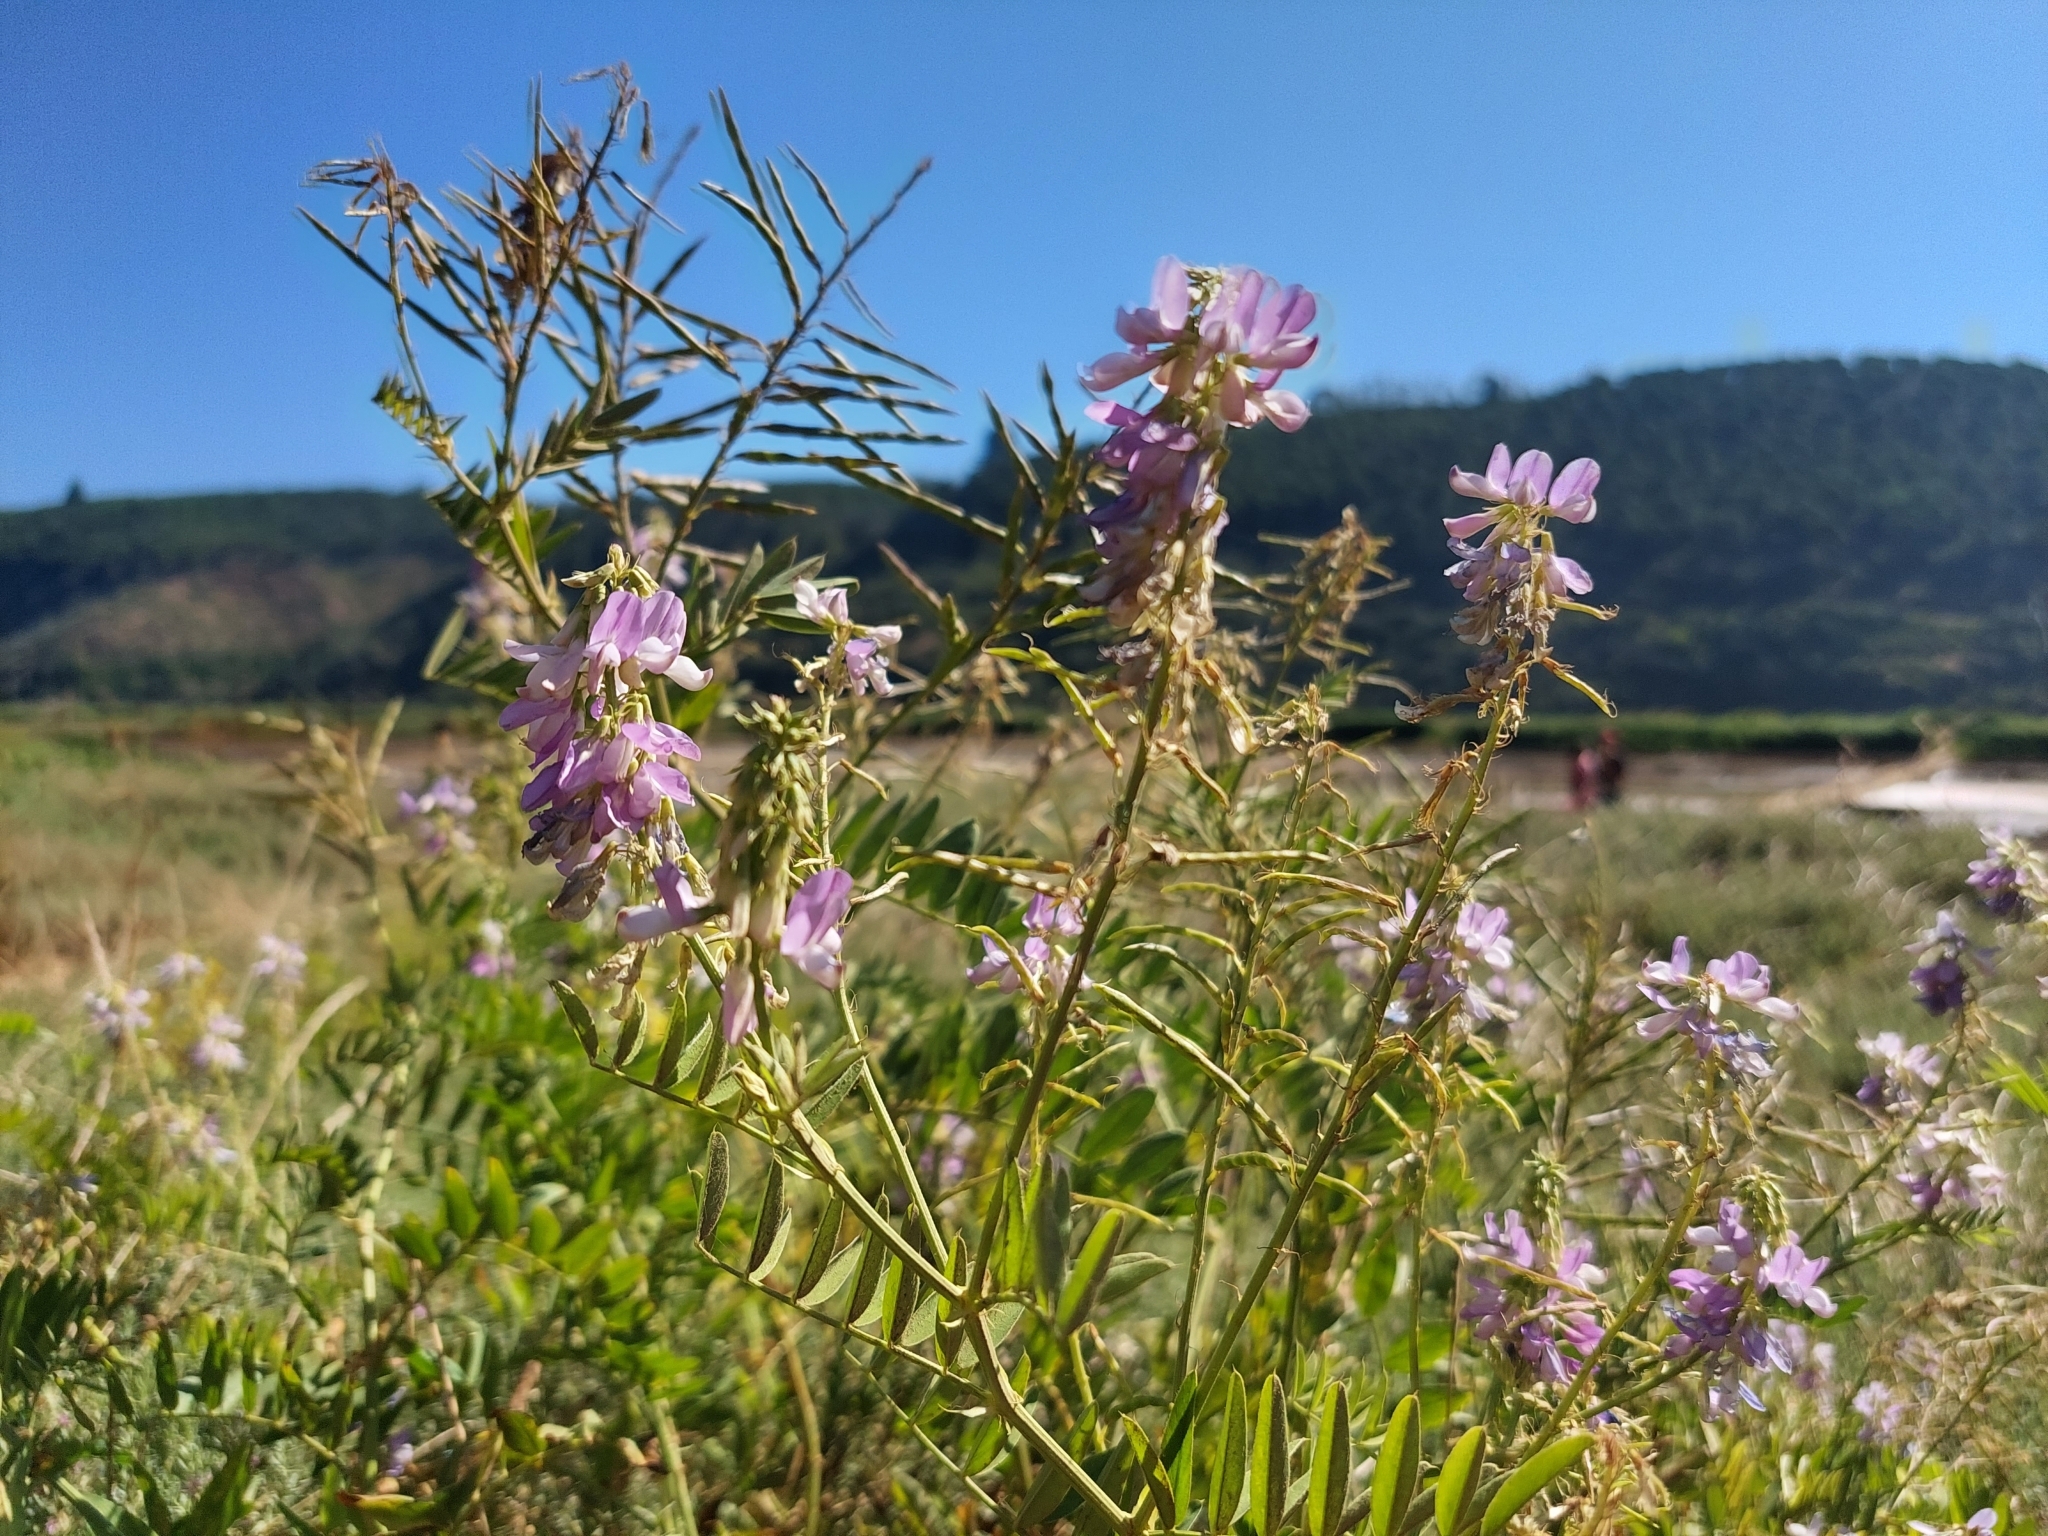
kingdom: Plantae
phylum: Tracheophyta
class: Magnoliopsida
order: Fabales
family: Fabaceae
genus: Galega
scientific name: Galega officinalis
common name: Goat's-rue
